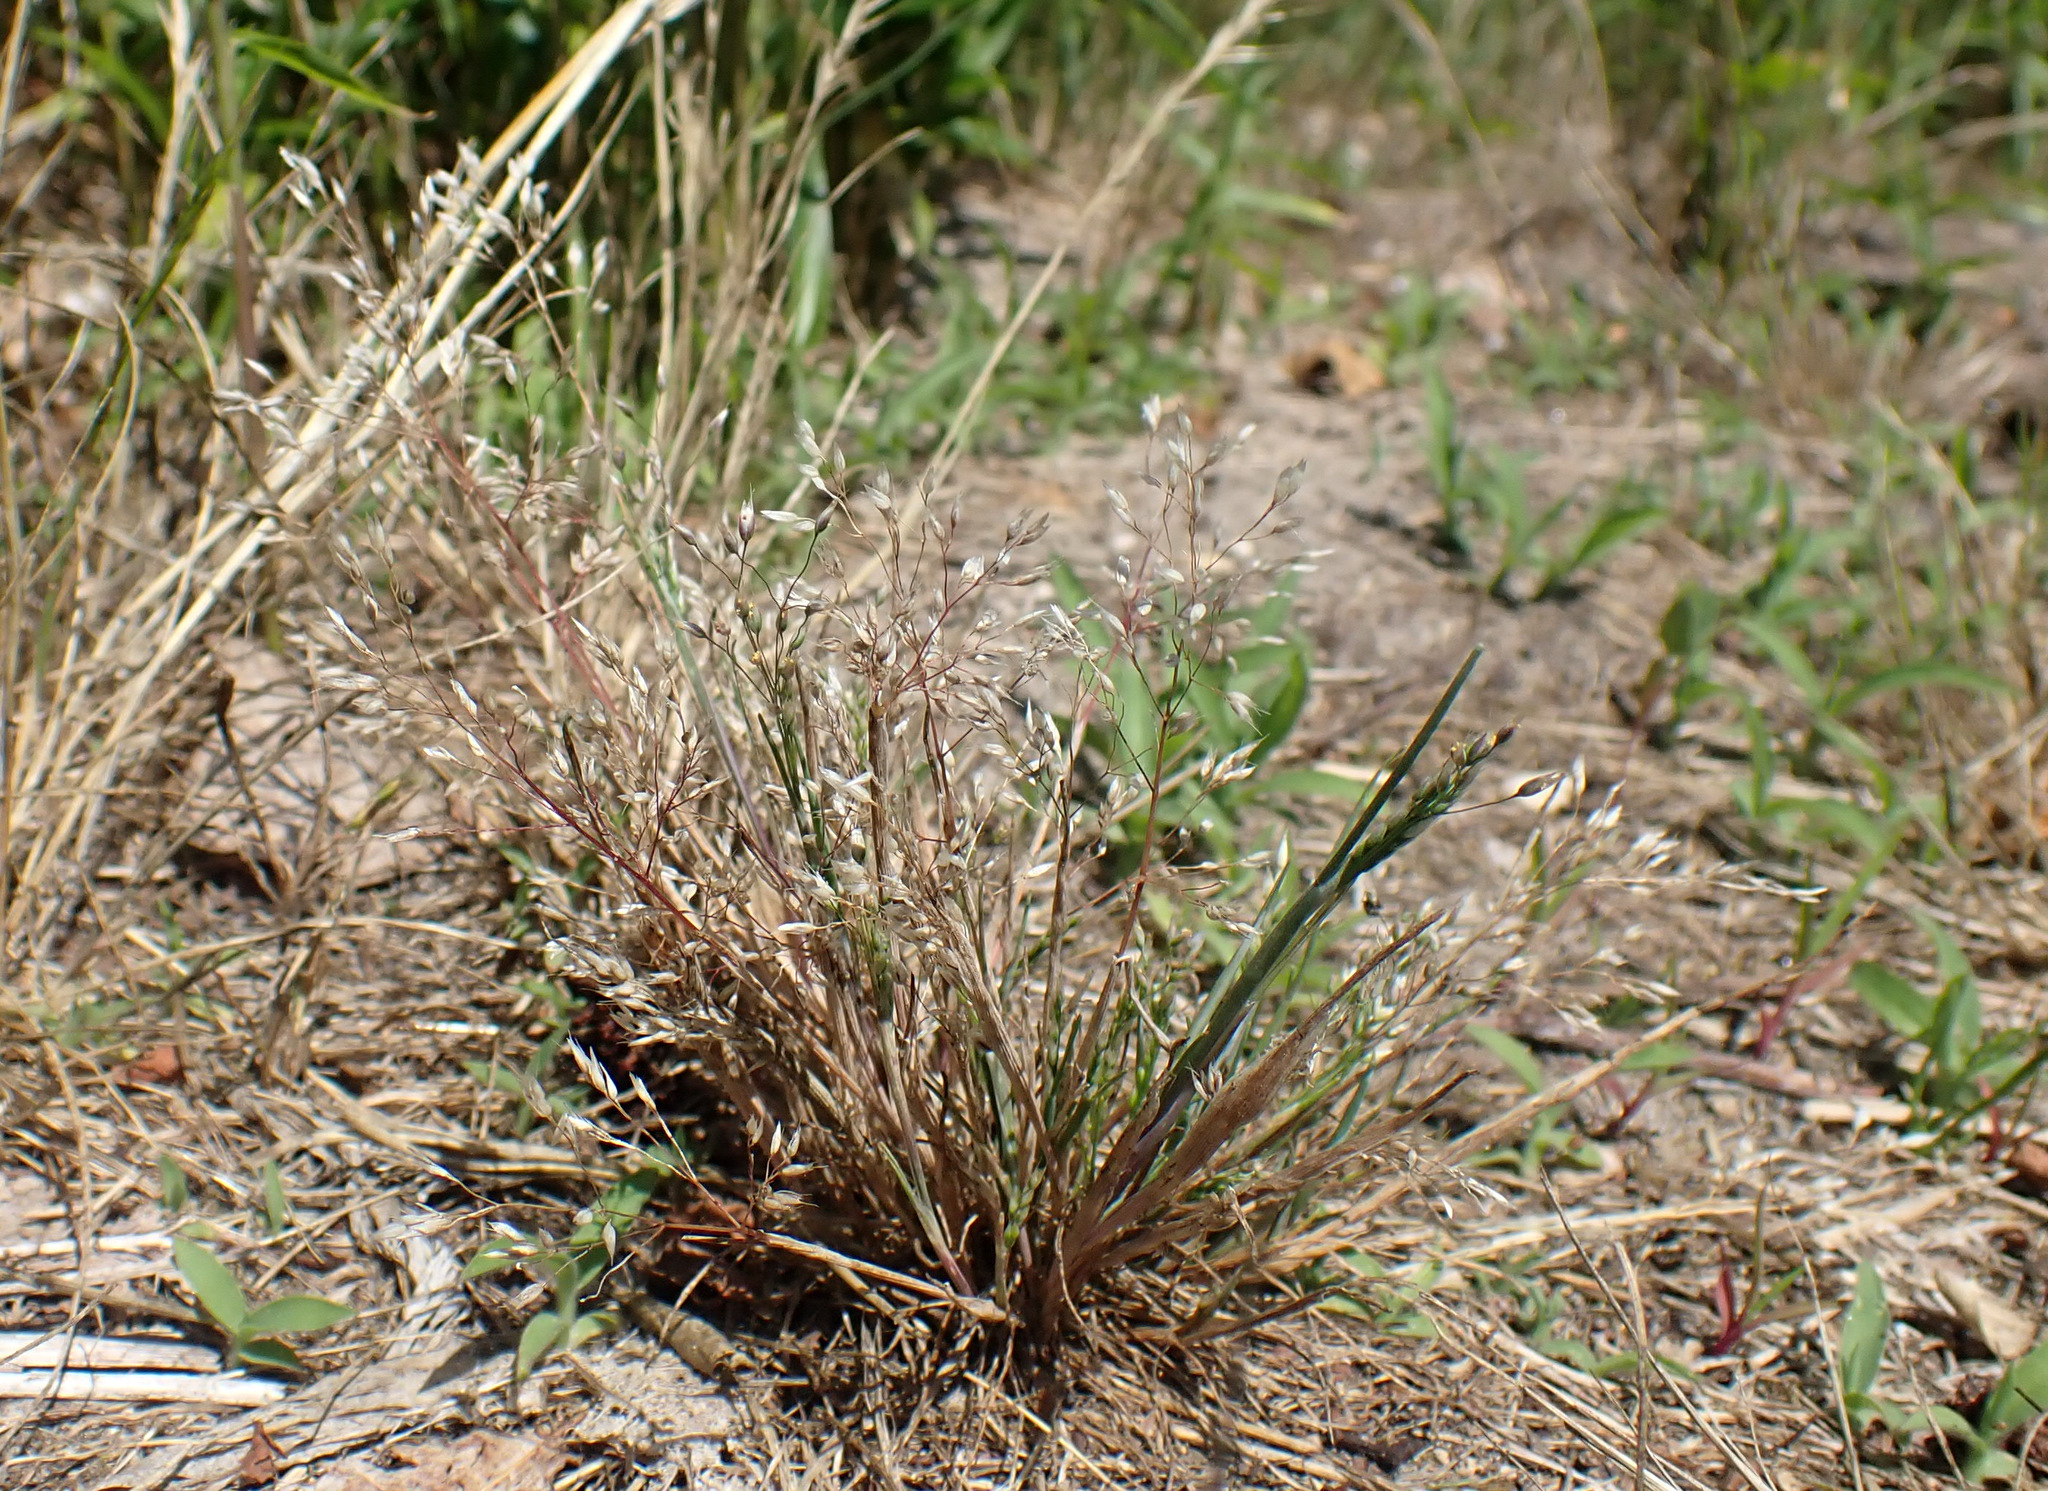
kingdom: Plantae
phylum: Tracheophyta
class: Liliopsida
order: Poales
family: Poaceae
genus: Aira
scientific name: Aira caryophyllea
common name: Silver hairgrass
